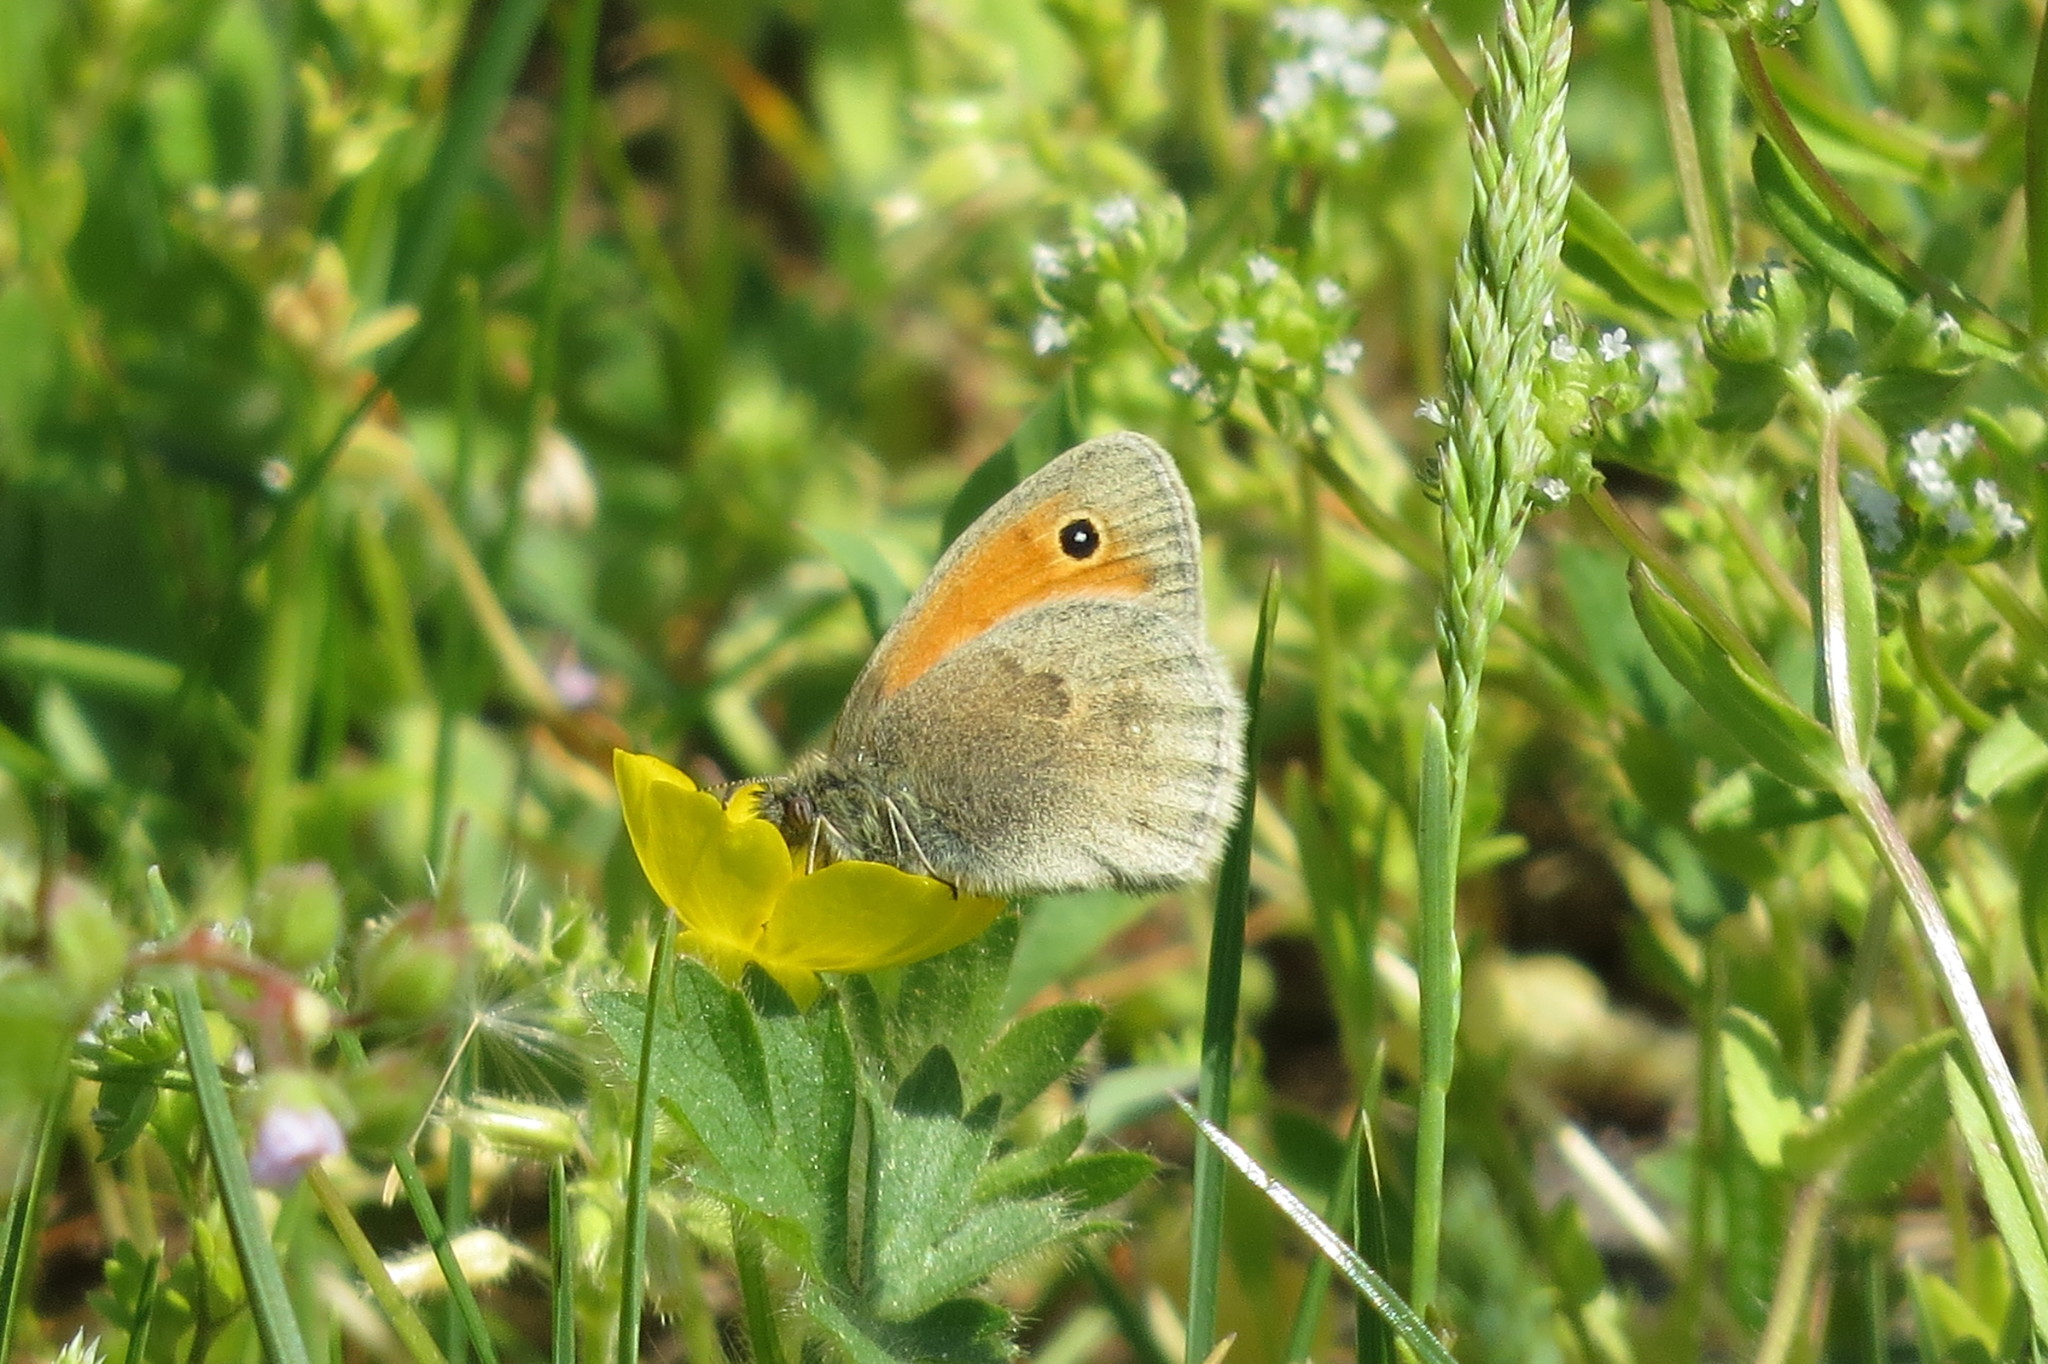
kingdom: Animalia
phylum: Arthropoda
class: Insecta
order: Lepidoptera
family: Nymphalidae
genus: Coenonympha
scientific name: Coenonympha pamphilus
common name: Small heath
